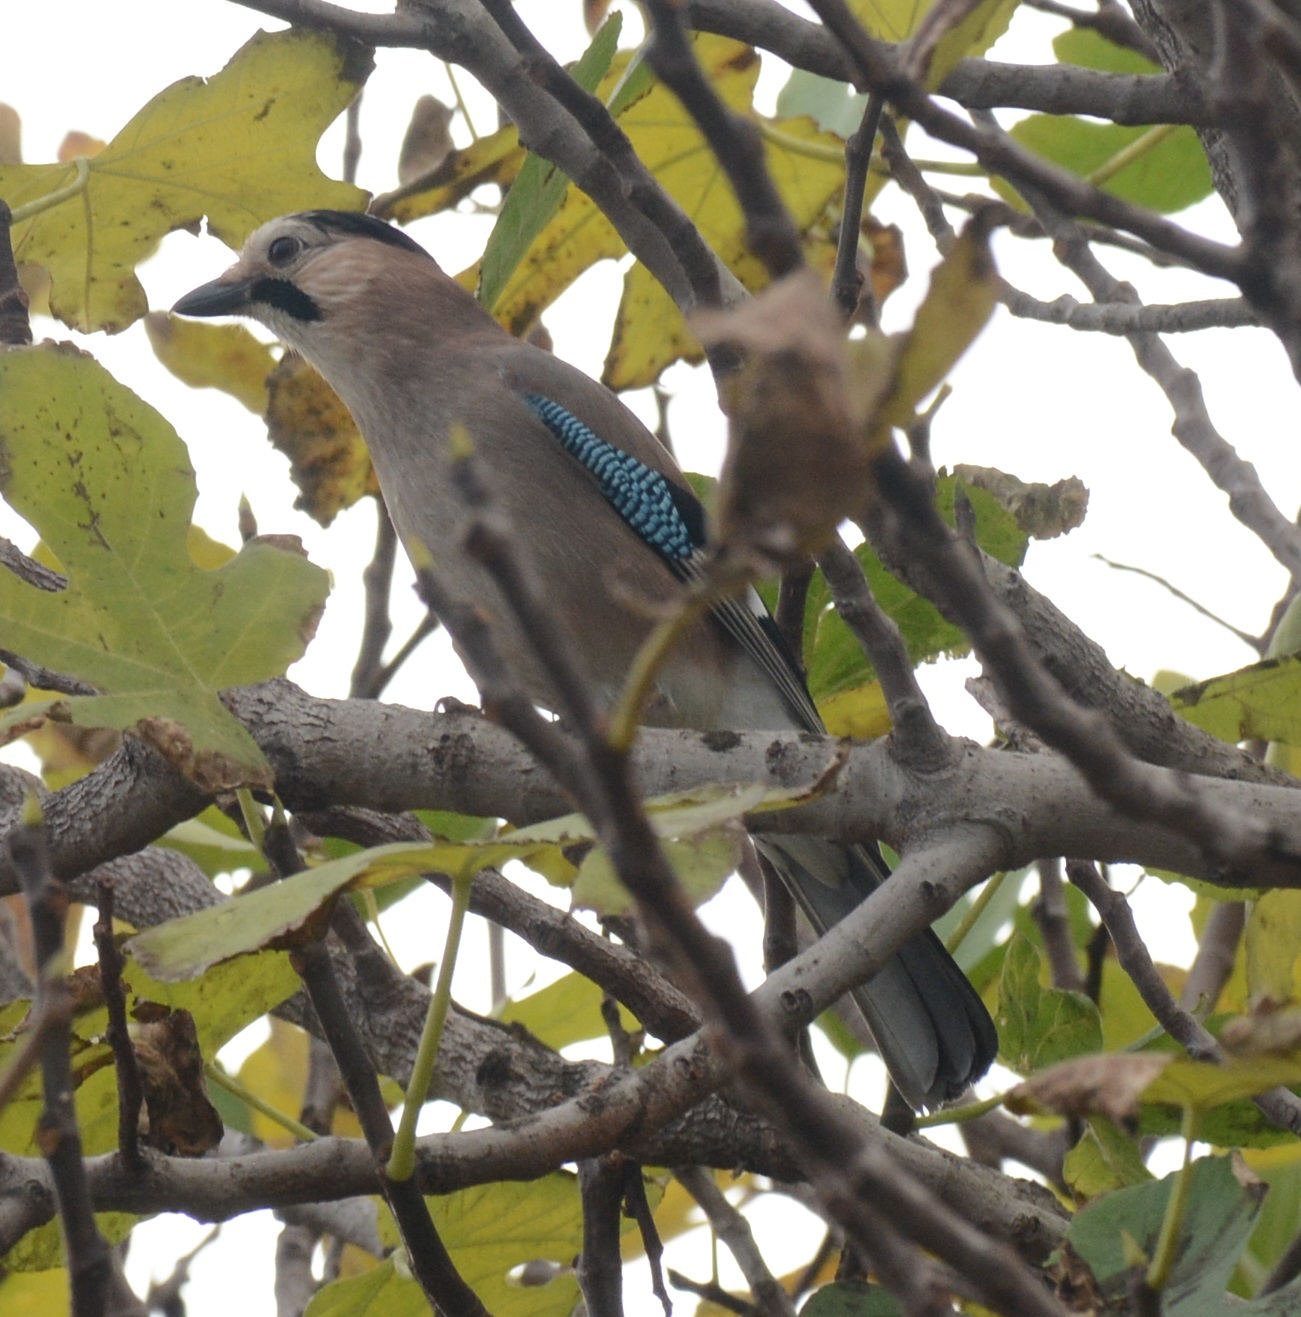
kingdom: Animalia
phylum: Chordata
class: Aves
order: Passeriformes
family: Corvidae
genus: Garrulus
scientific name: Garrulus glandarius
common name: Eurasian jay
